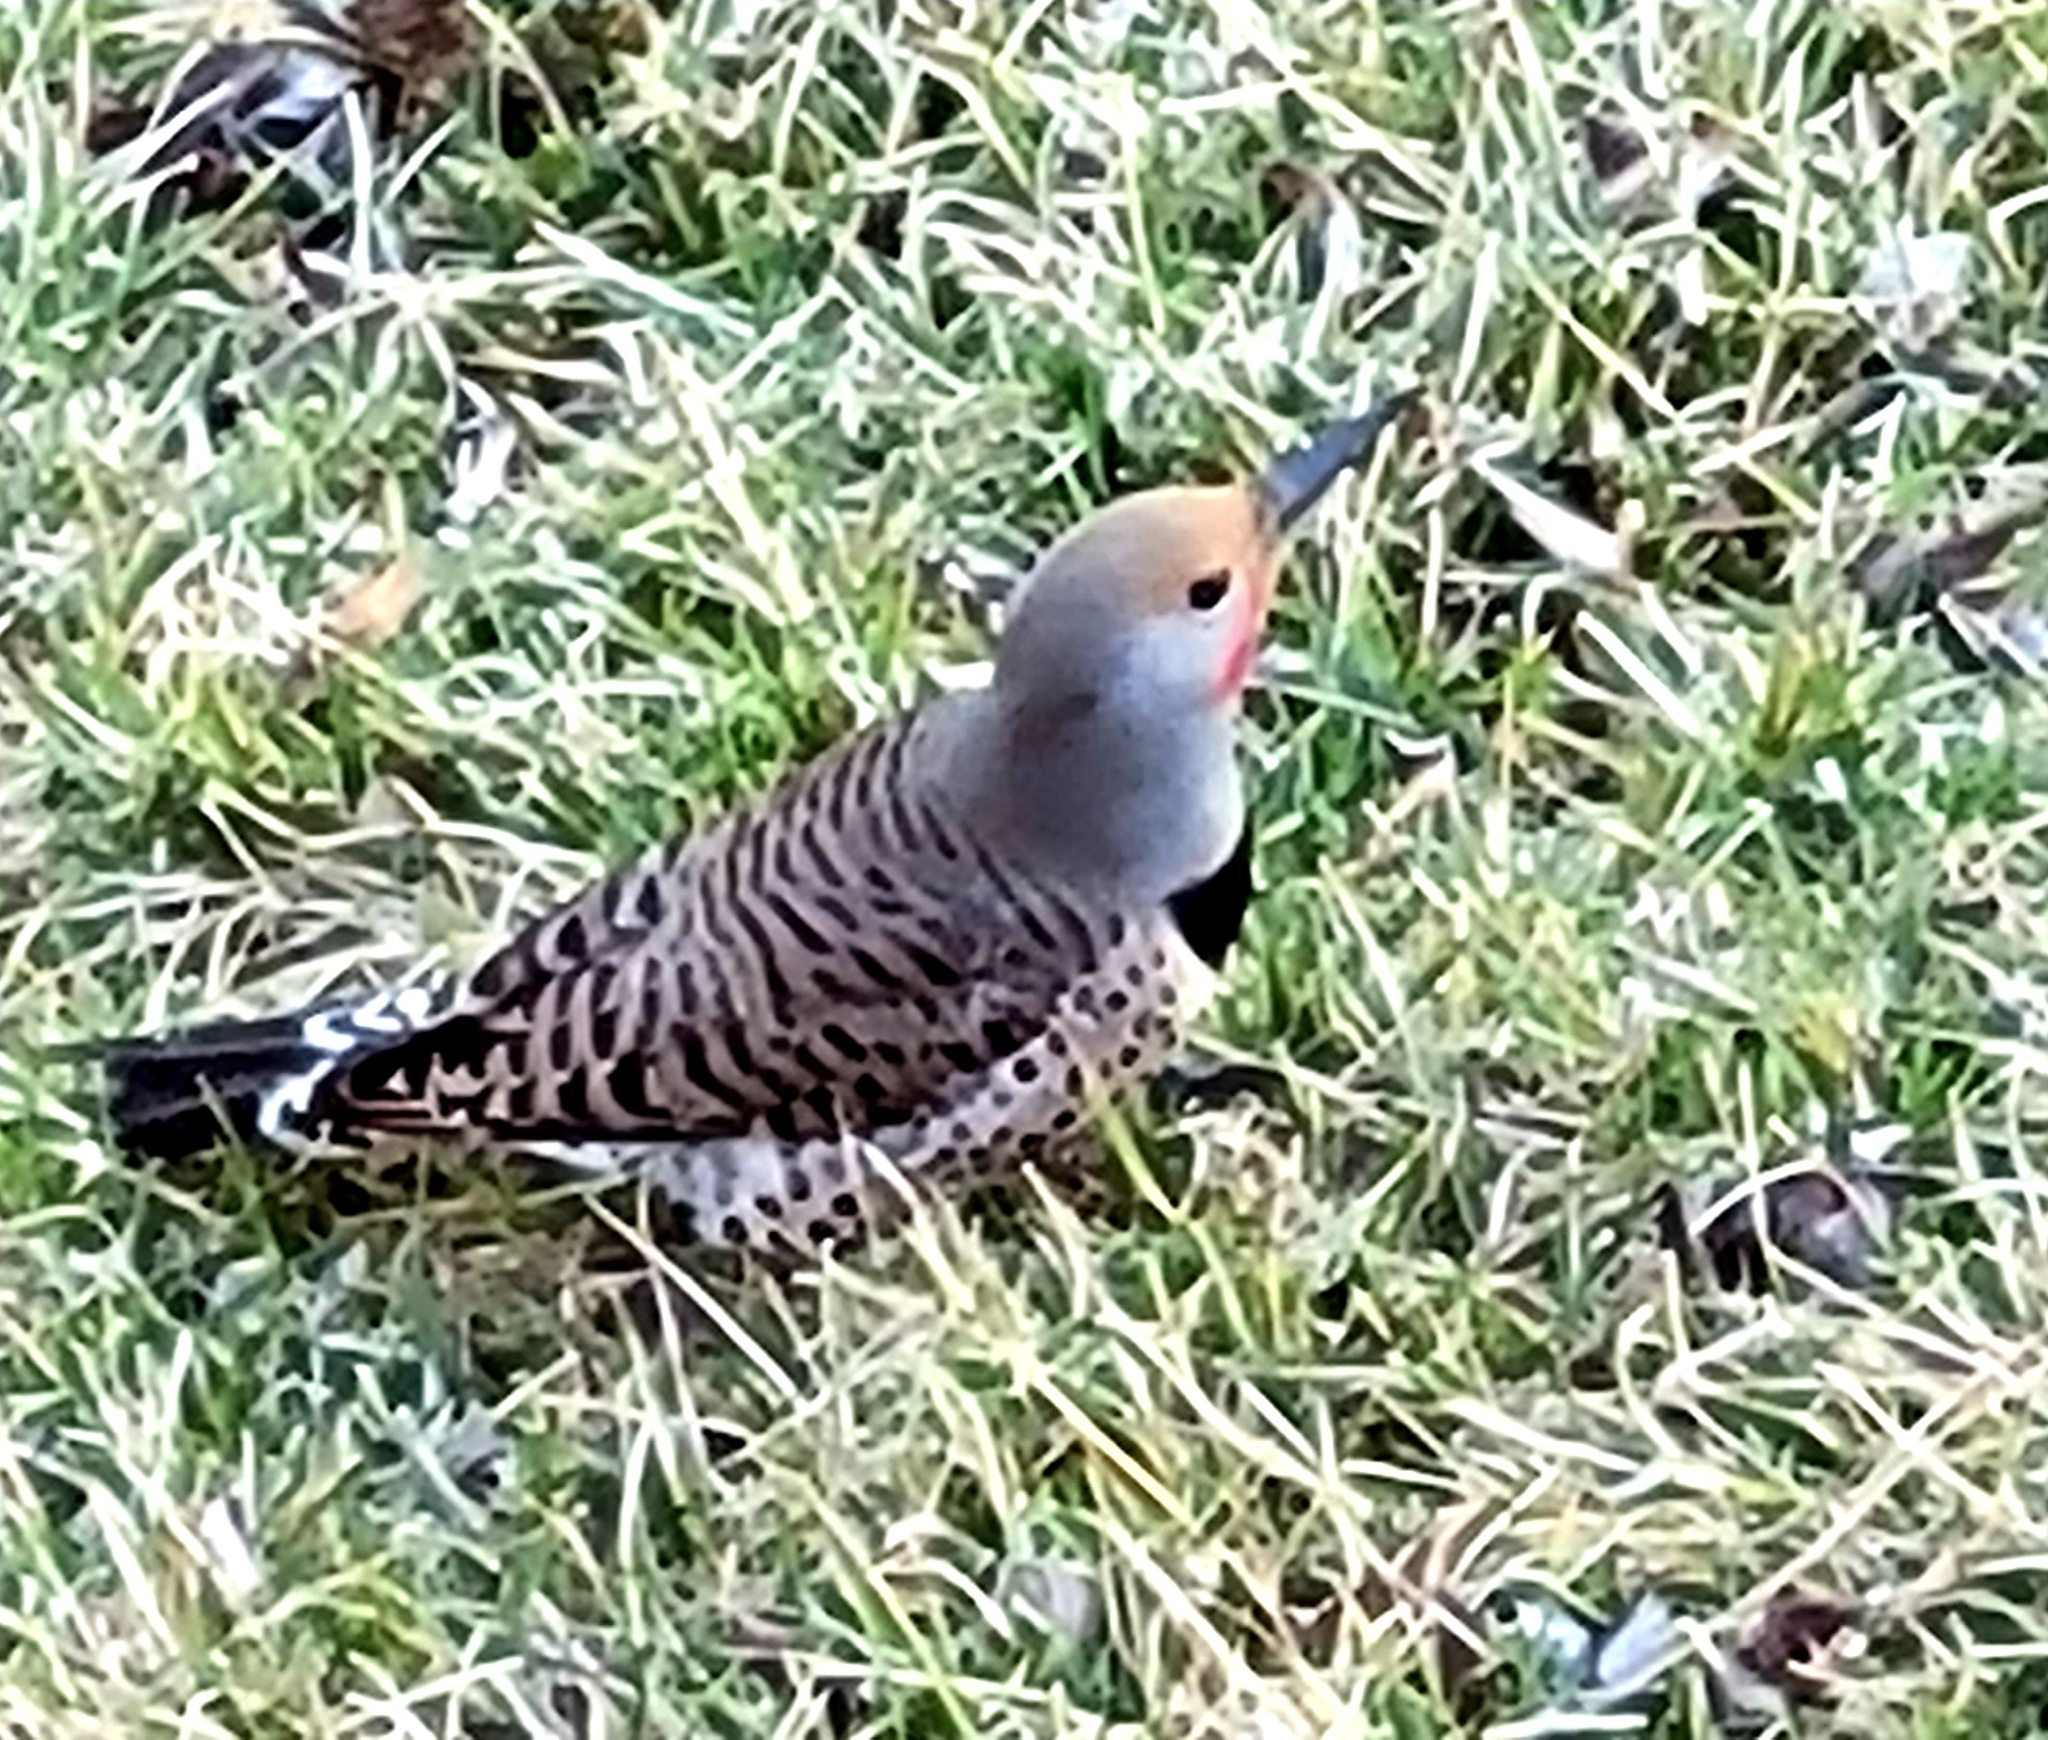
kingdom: Animalia
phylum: Chordata
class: Aves
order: Piciformes
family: Picidae
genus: Colaptes
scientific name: Colaptes auratus
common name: Northern flicker
